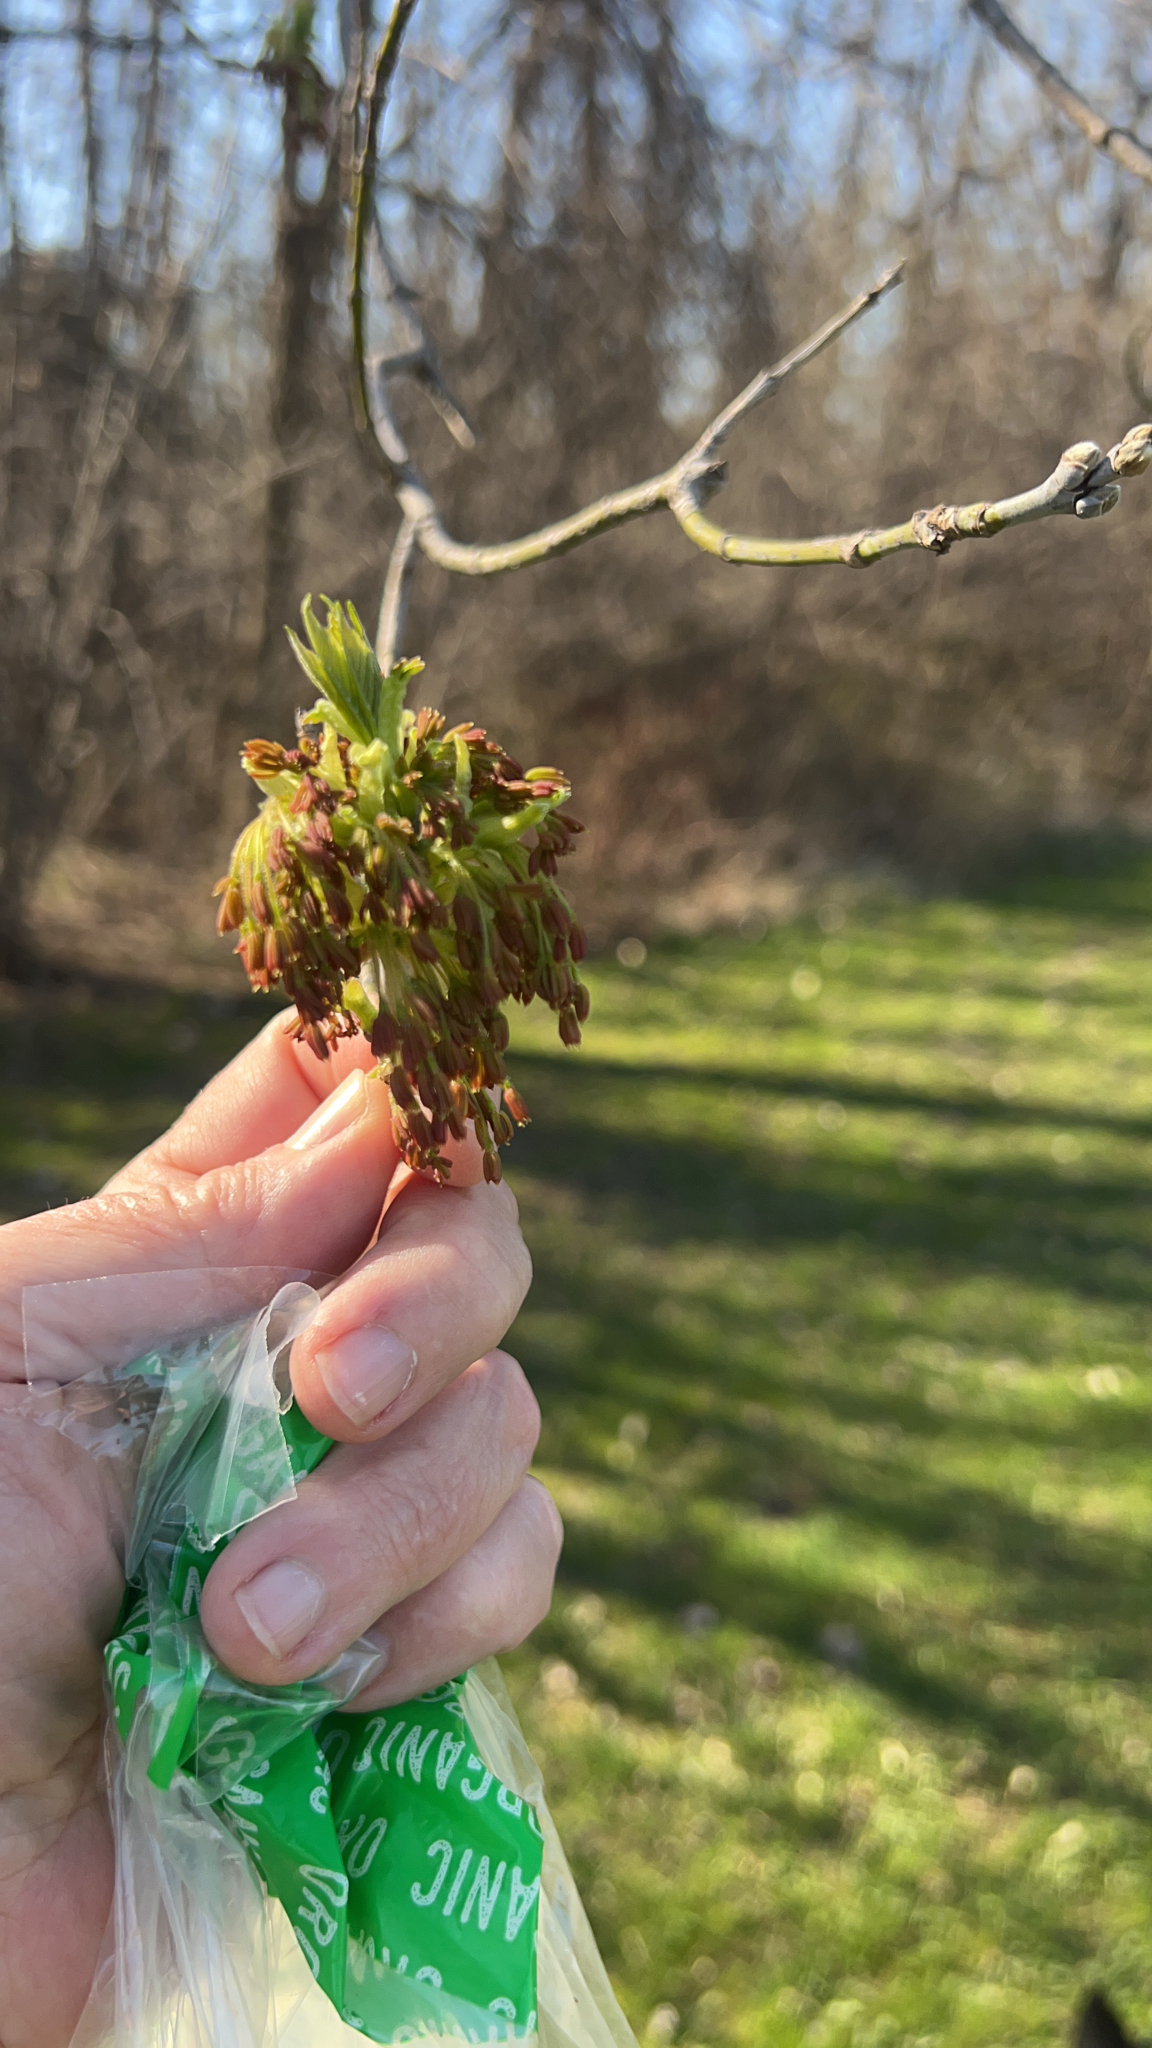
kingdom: Plantae
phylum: Tracheophyta
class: Magnoliopsida
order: Sapindales
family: Sapindaceae
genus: Acer
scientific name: Acer negundo
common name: Ashleaf maple
